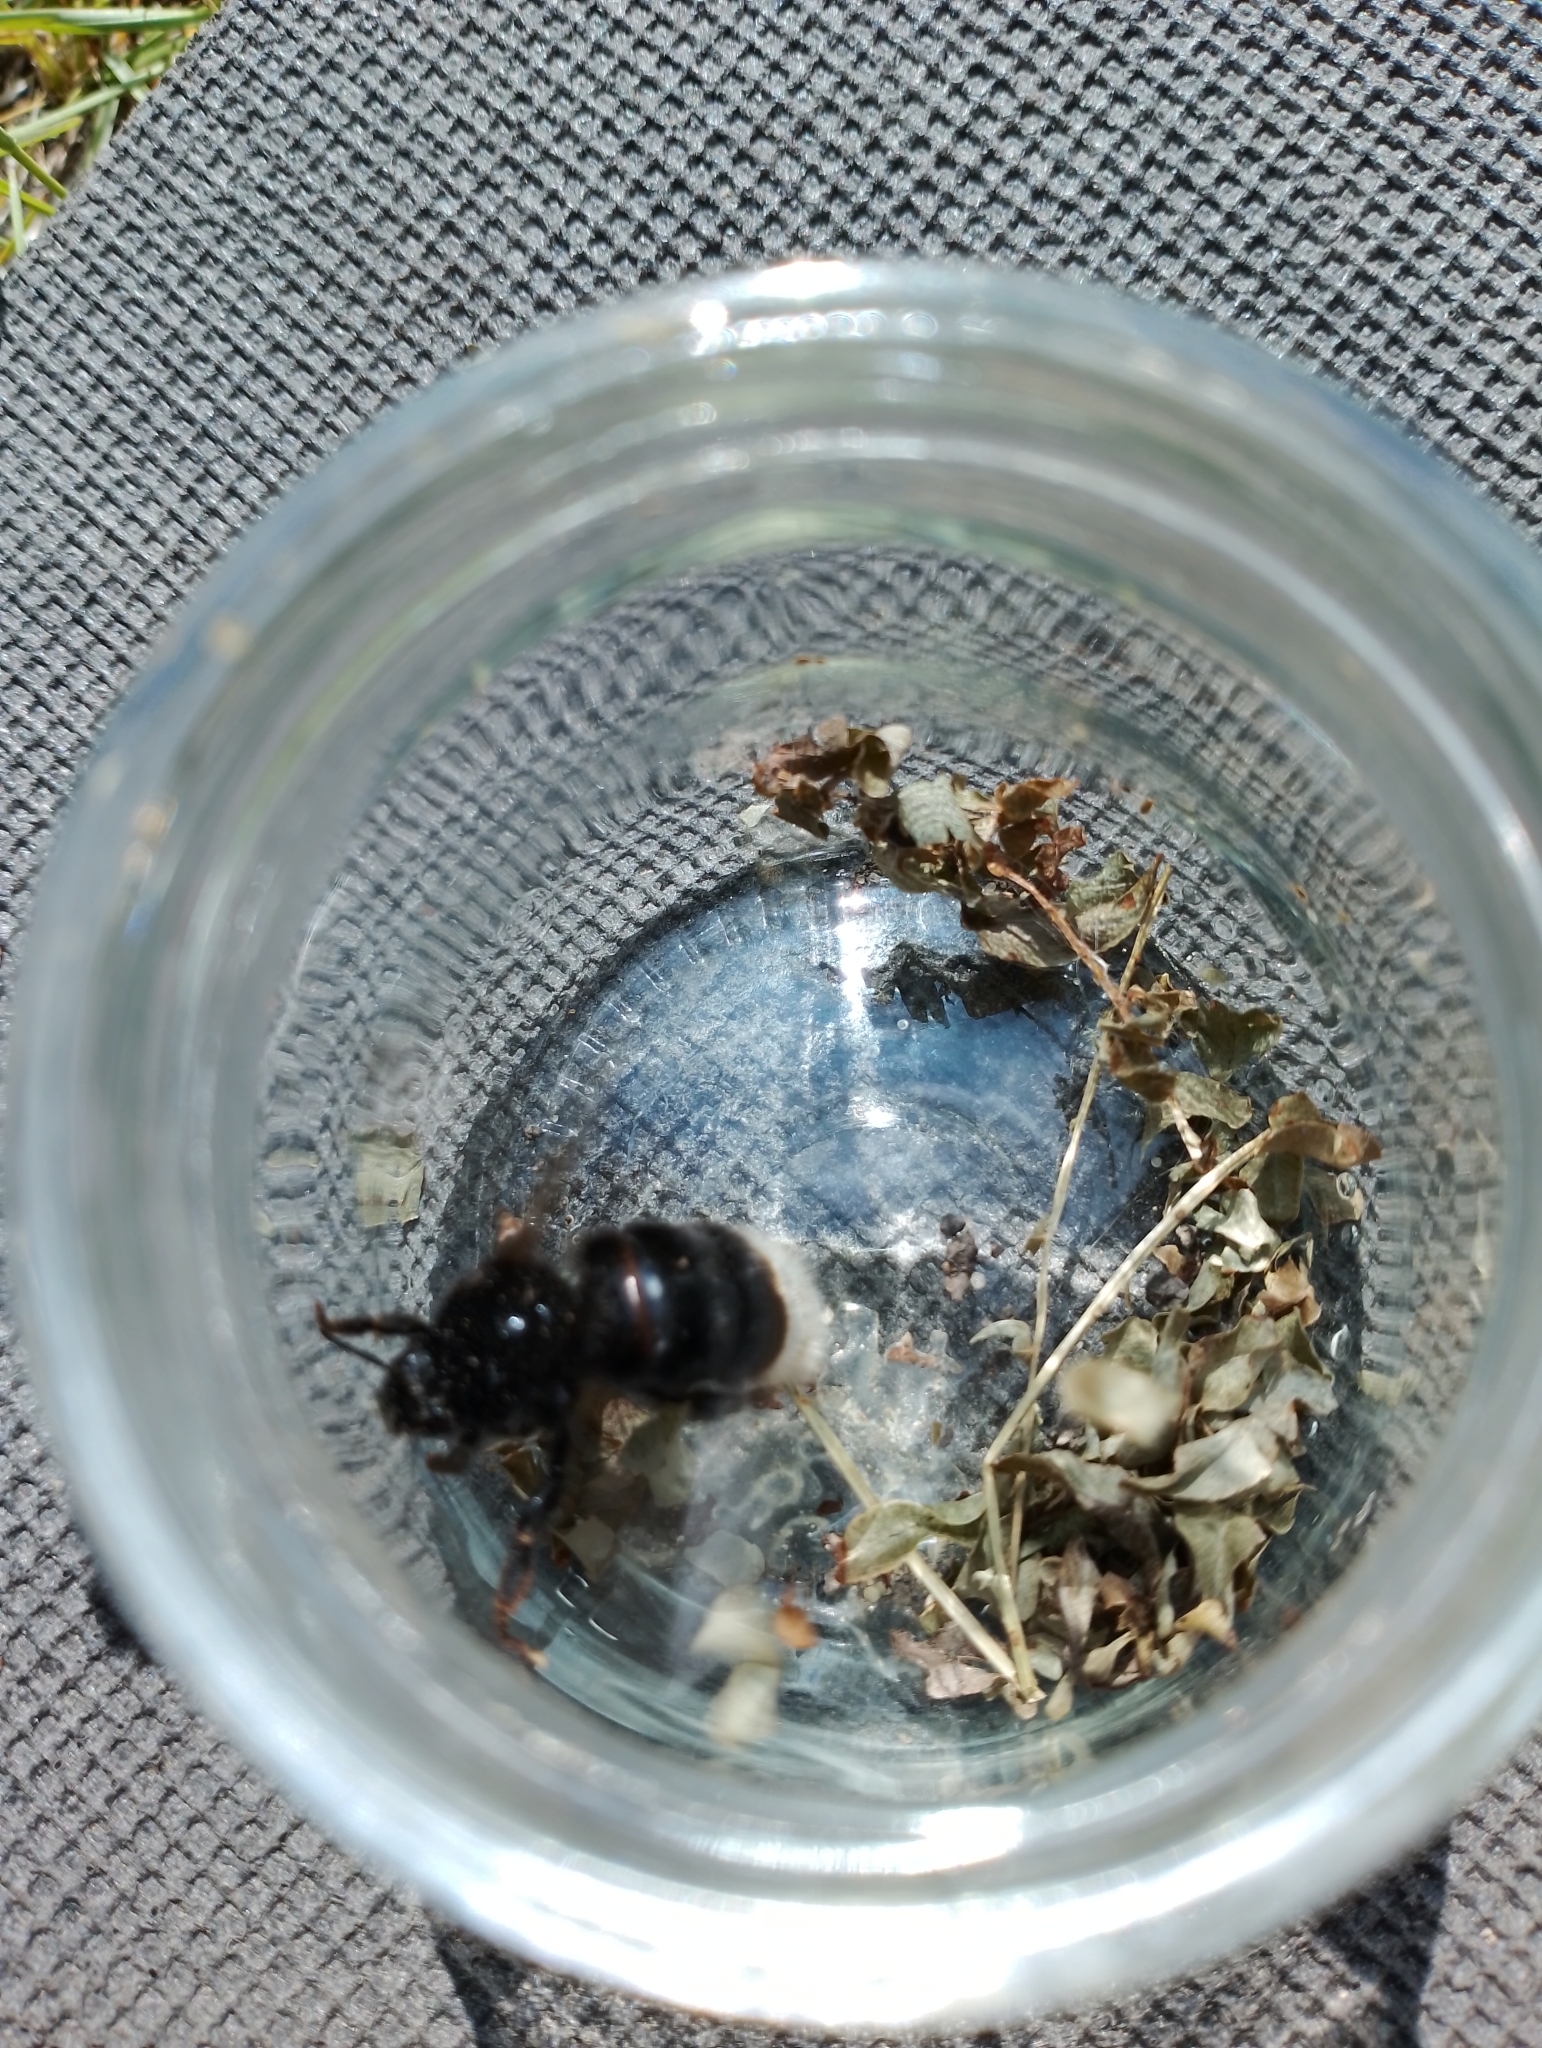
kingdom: Animalia
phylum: Arthropoda
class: Insecta
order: Hymenoptera
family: Apidae
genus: Bombus
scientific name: Bombus
